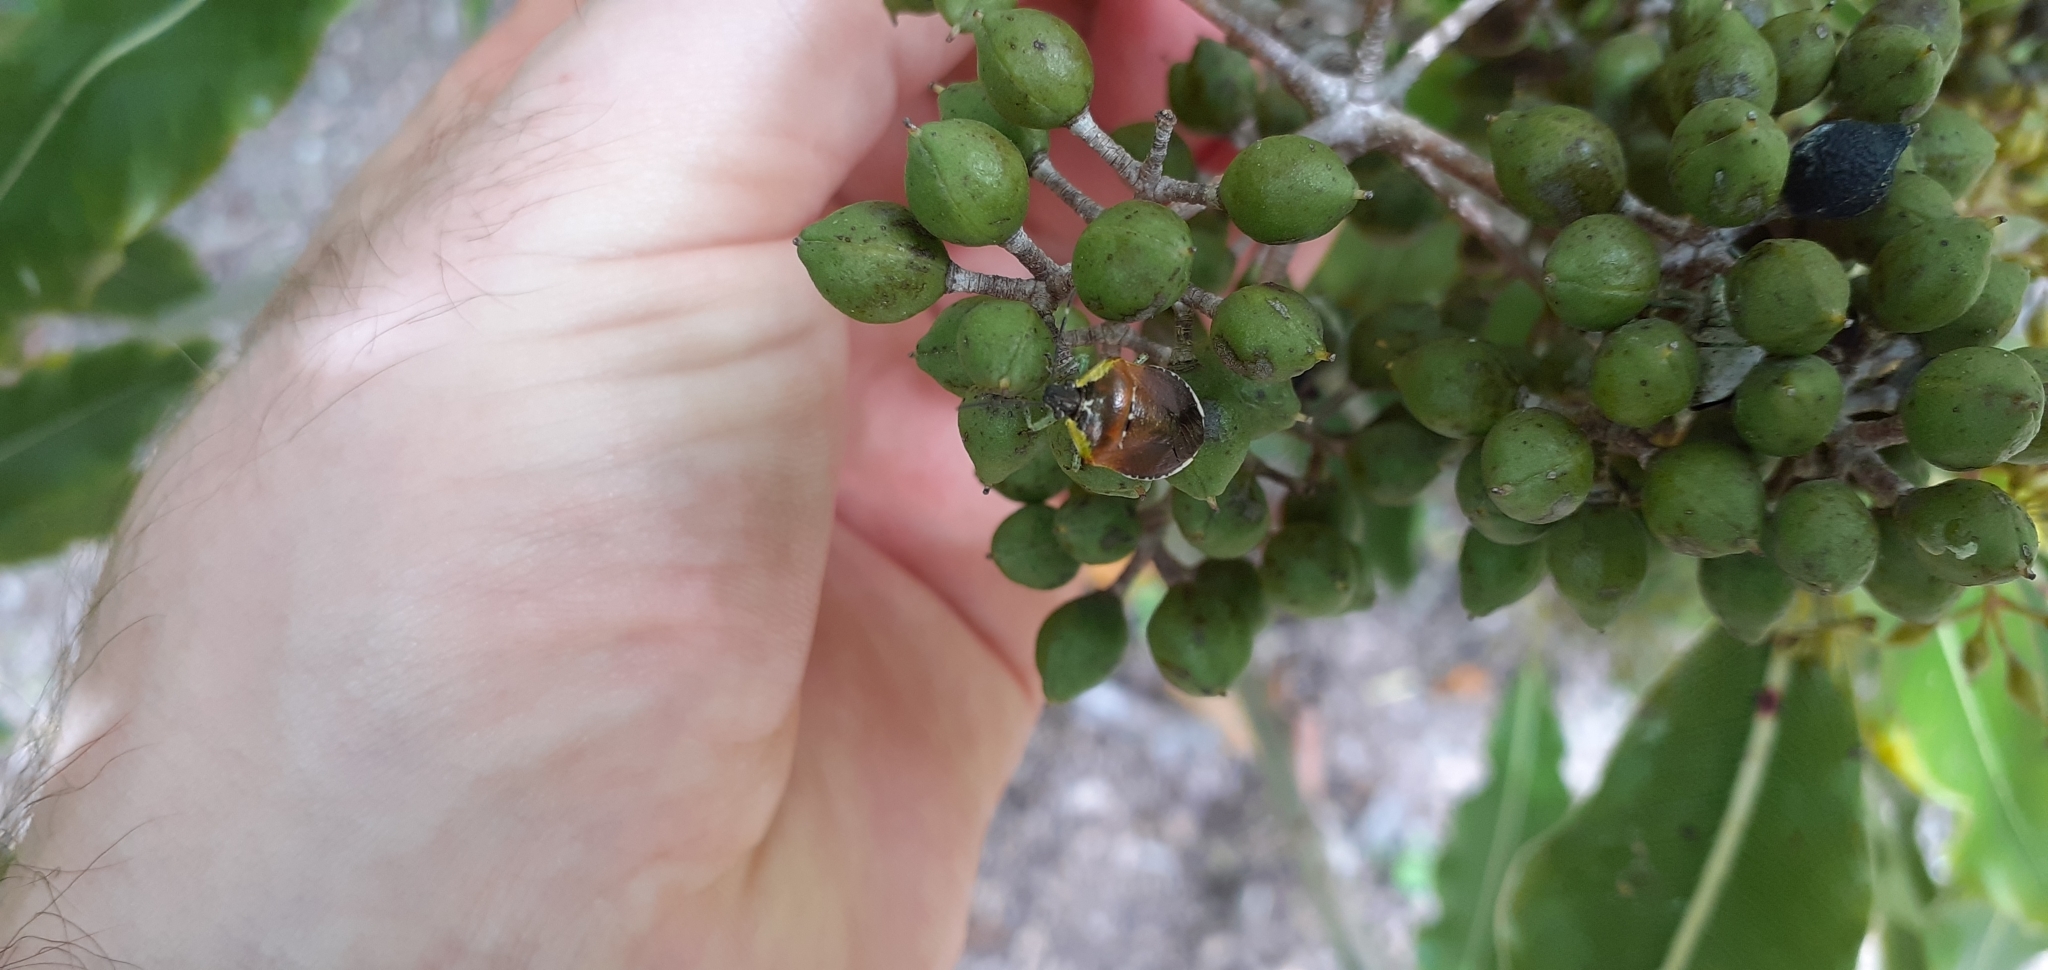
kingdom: Animalia
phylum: Arthropoda
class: Insecta
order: Hemiptera
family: Pentatomidae
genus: Monteithiella
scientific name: Monteithiella
